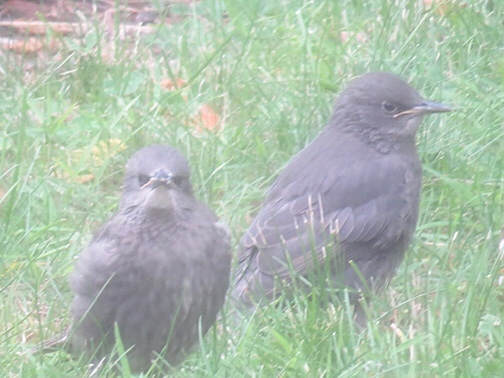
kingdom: Animalia
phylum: Chordata
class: Aves
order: Passeriformes
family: Sturnidae
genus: Sturnus
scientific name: Sturnus vulgaris
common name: Common starling
